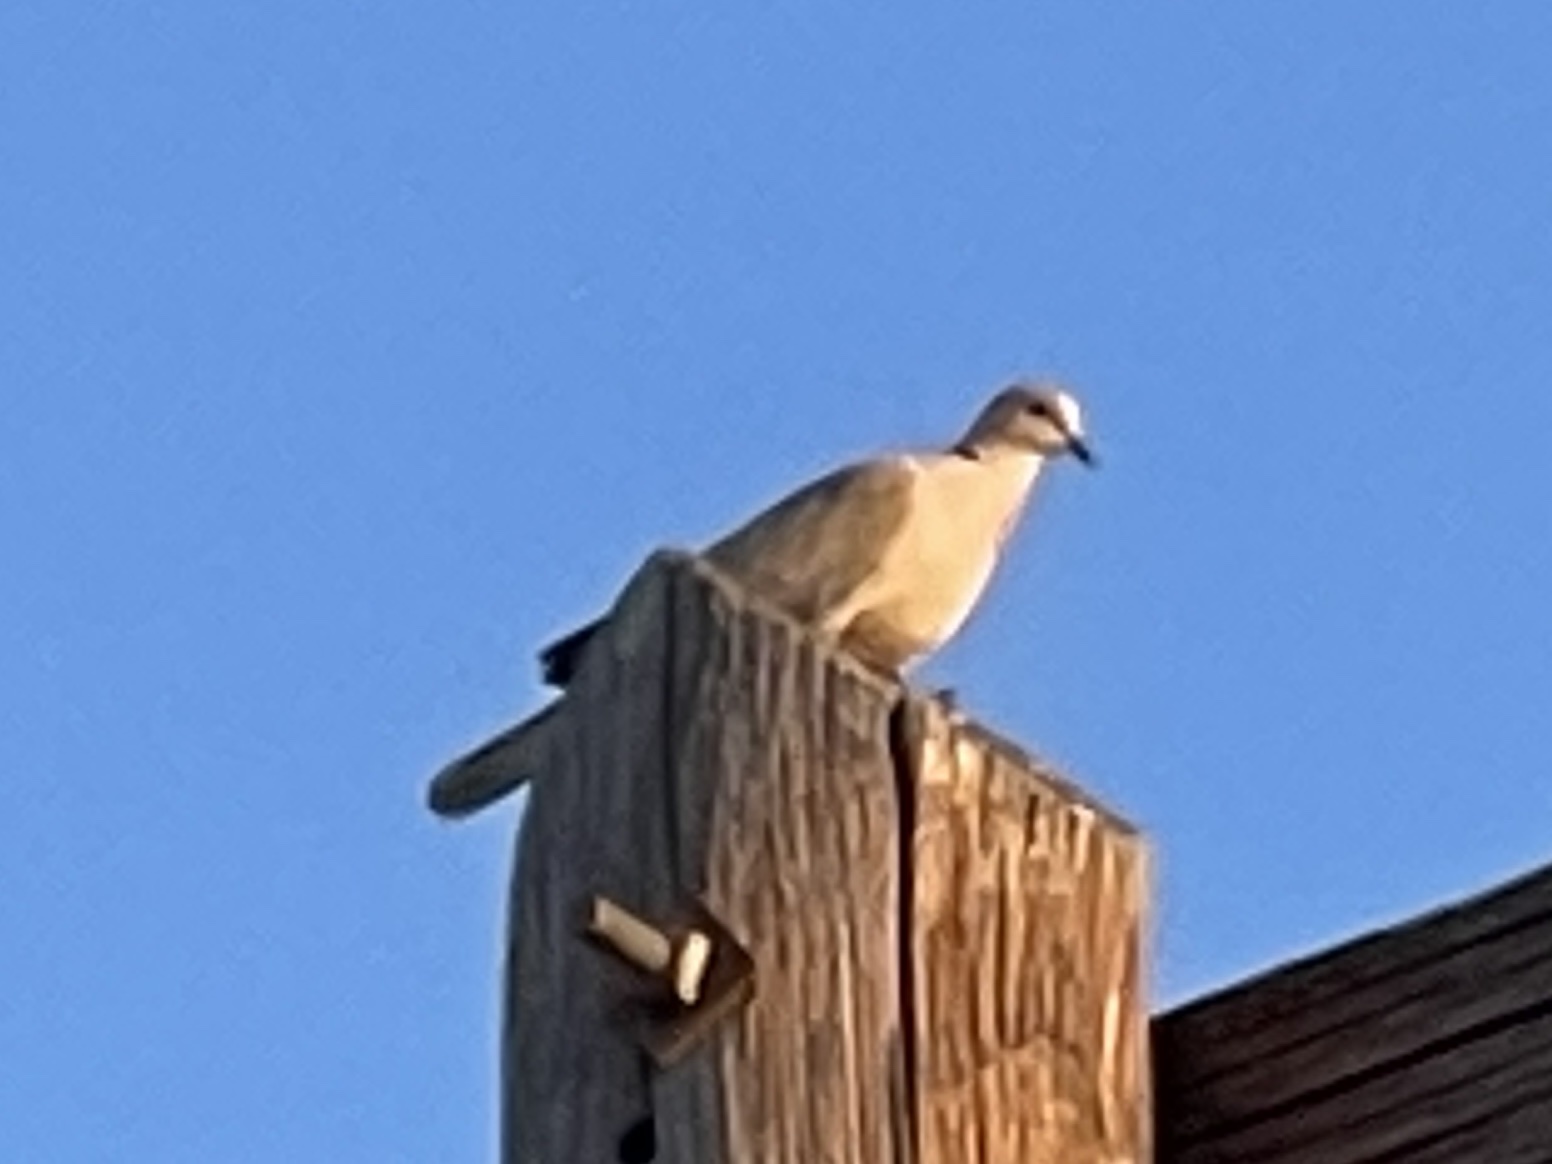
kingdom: Animalia
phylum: Chordata
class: Aves
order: Columbiformes
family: Columbidae
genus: Streptopelia
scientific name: Streptopelia decaocto
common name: Eurasian collared dove
